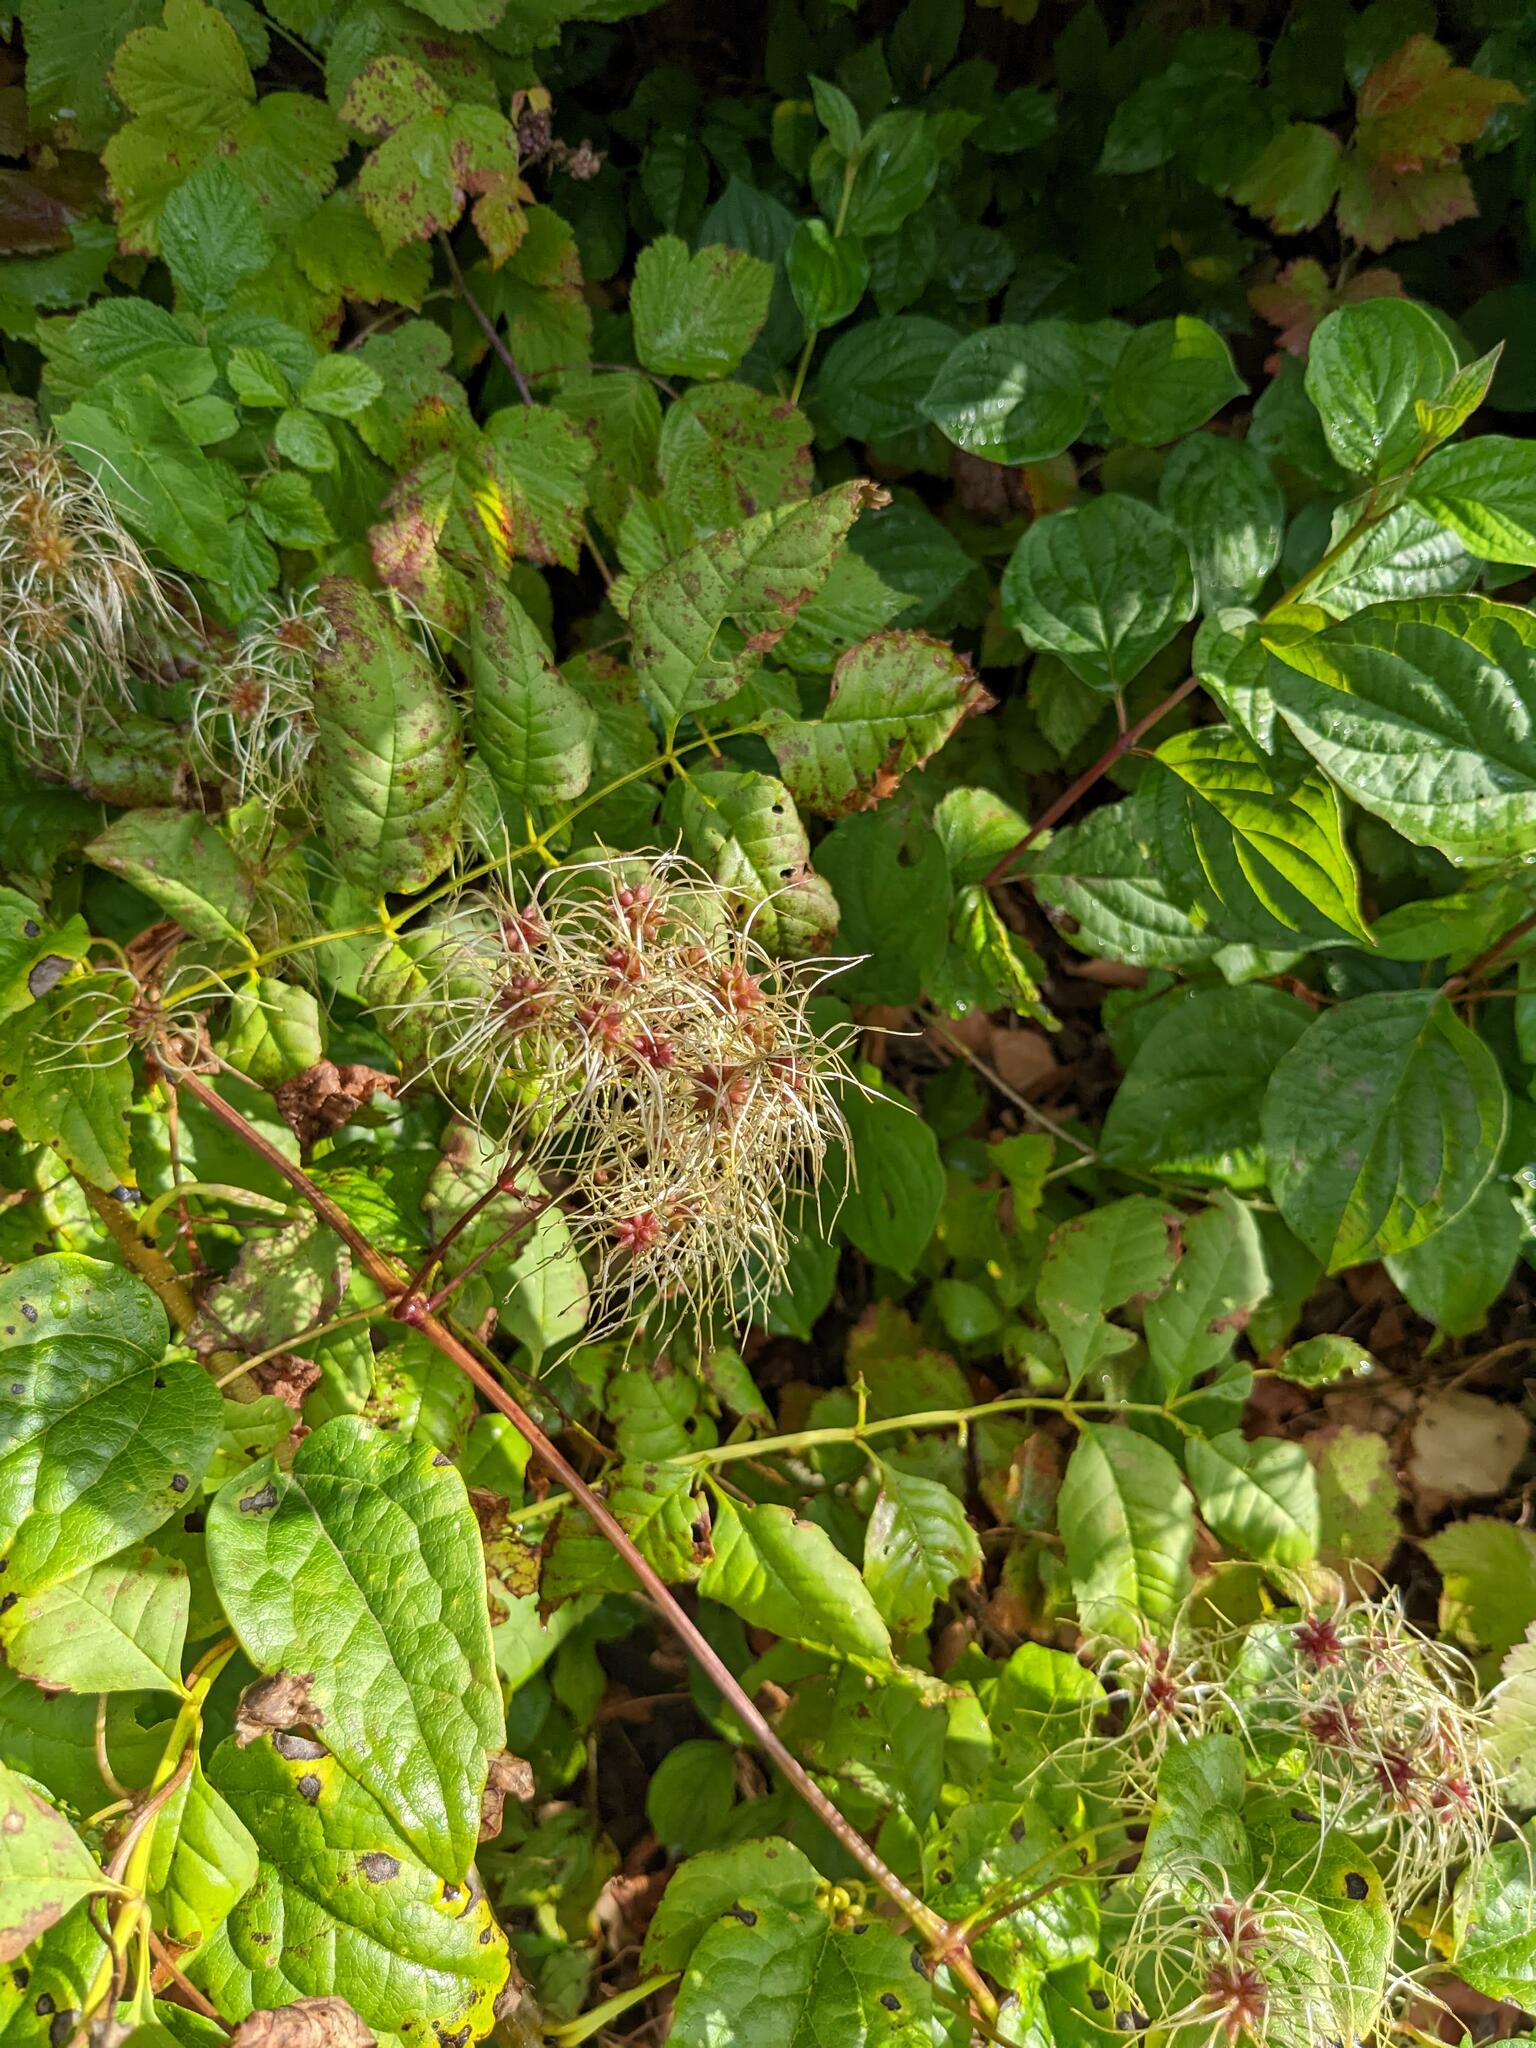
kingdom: Plantae
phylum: Tracheophyta
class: Magnoliopsida
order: Ranunculales
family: Ranunculaceae
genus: Clematis
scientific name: Clematis vitalba
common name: Evergreen clematis
